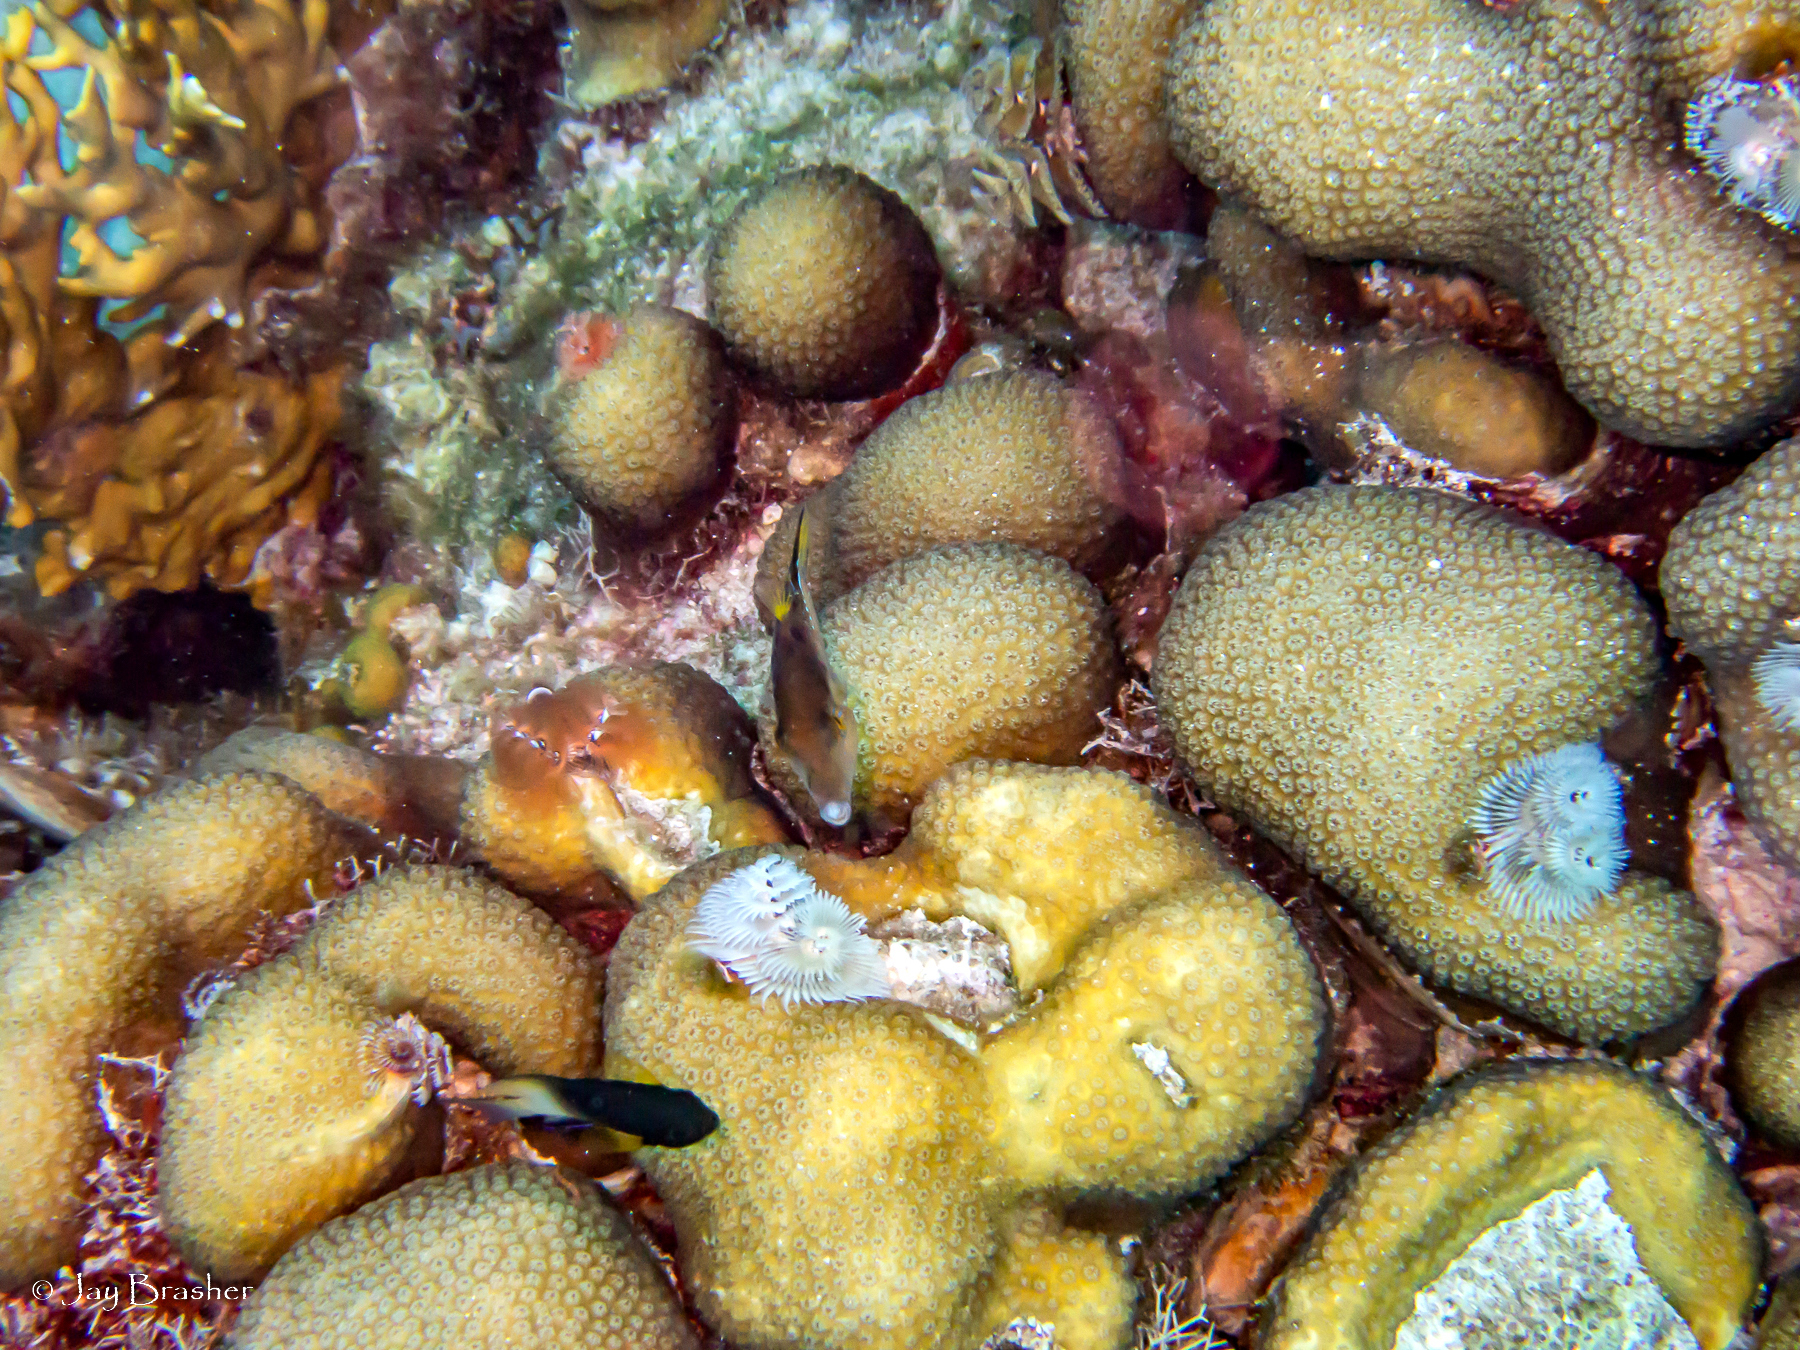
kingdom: Animalia
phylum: Chordata
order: Tetraodontiformes
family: Tetraodontidae
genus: Canthigaster
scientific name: Canthigaster rostrata
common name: Caribbean sharpnose-puffer
